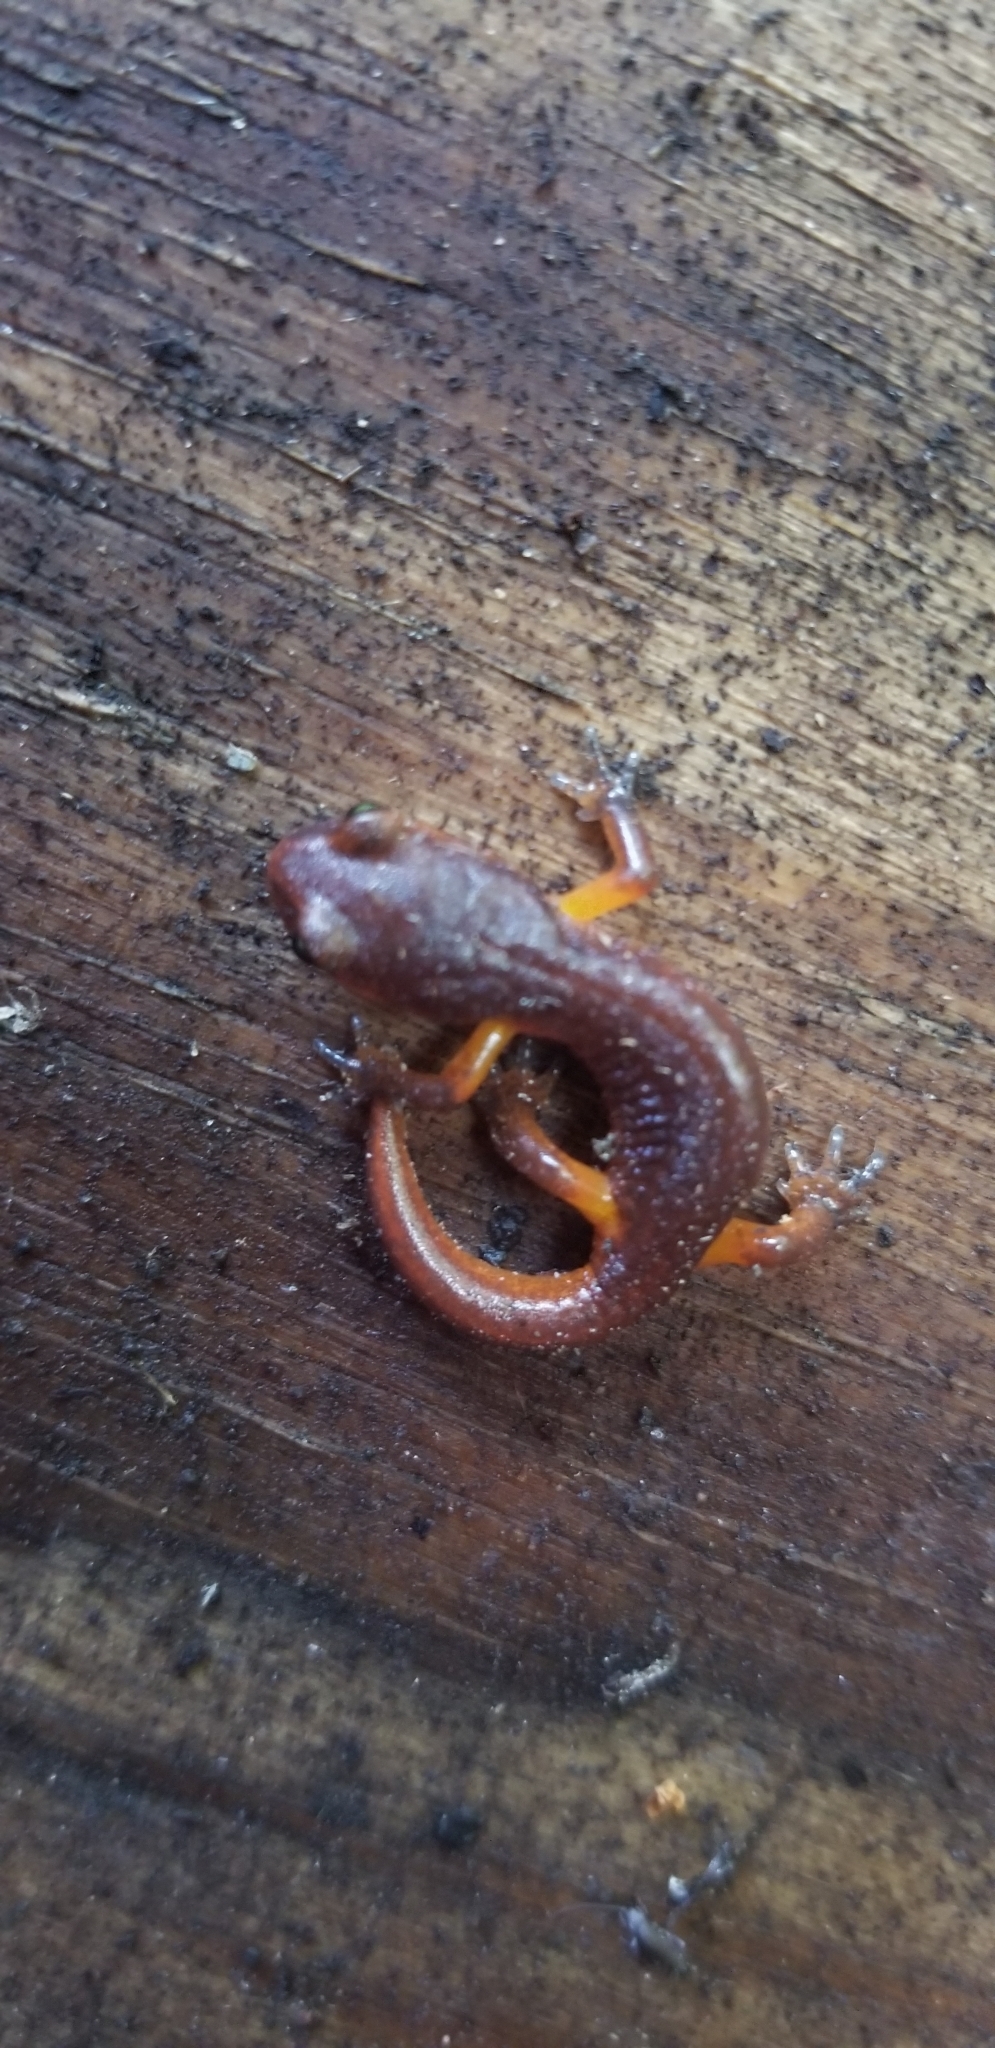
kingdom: Animalia
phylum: Chordata
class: Amphibia
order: Caudata
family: Plethodontidae
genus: Ensatina
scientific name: Ensatina eschscholtzii
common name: Ensatina
